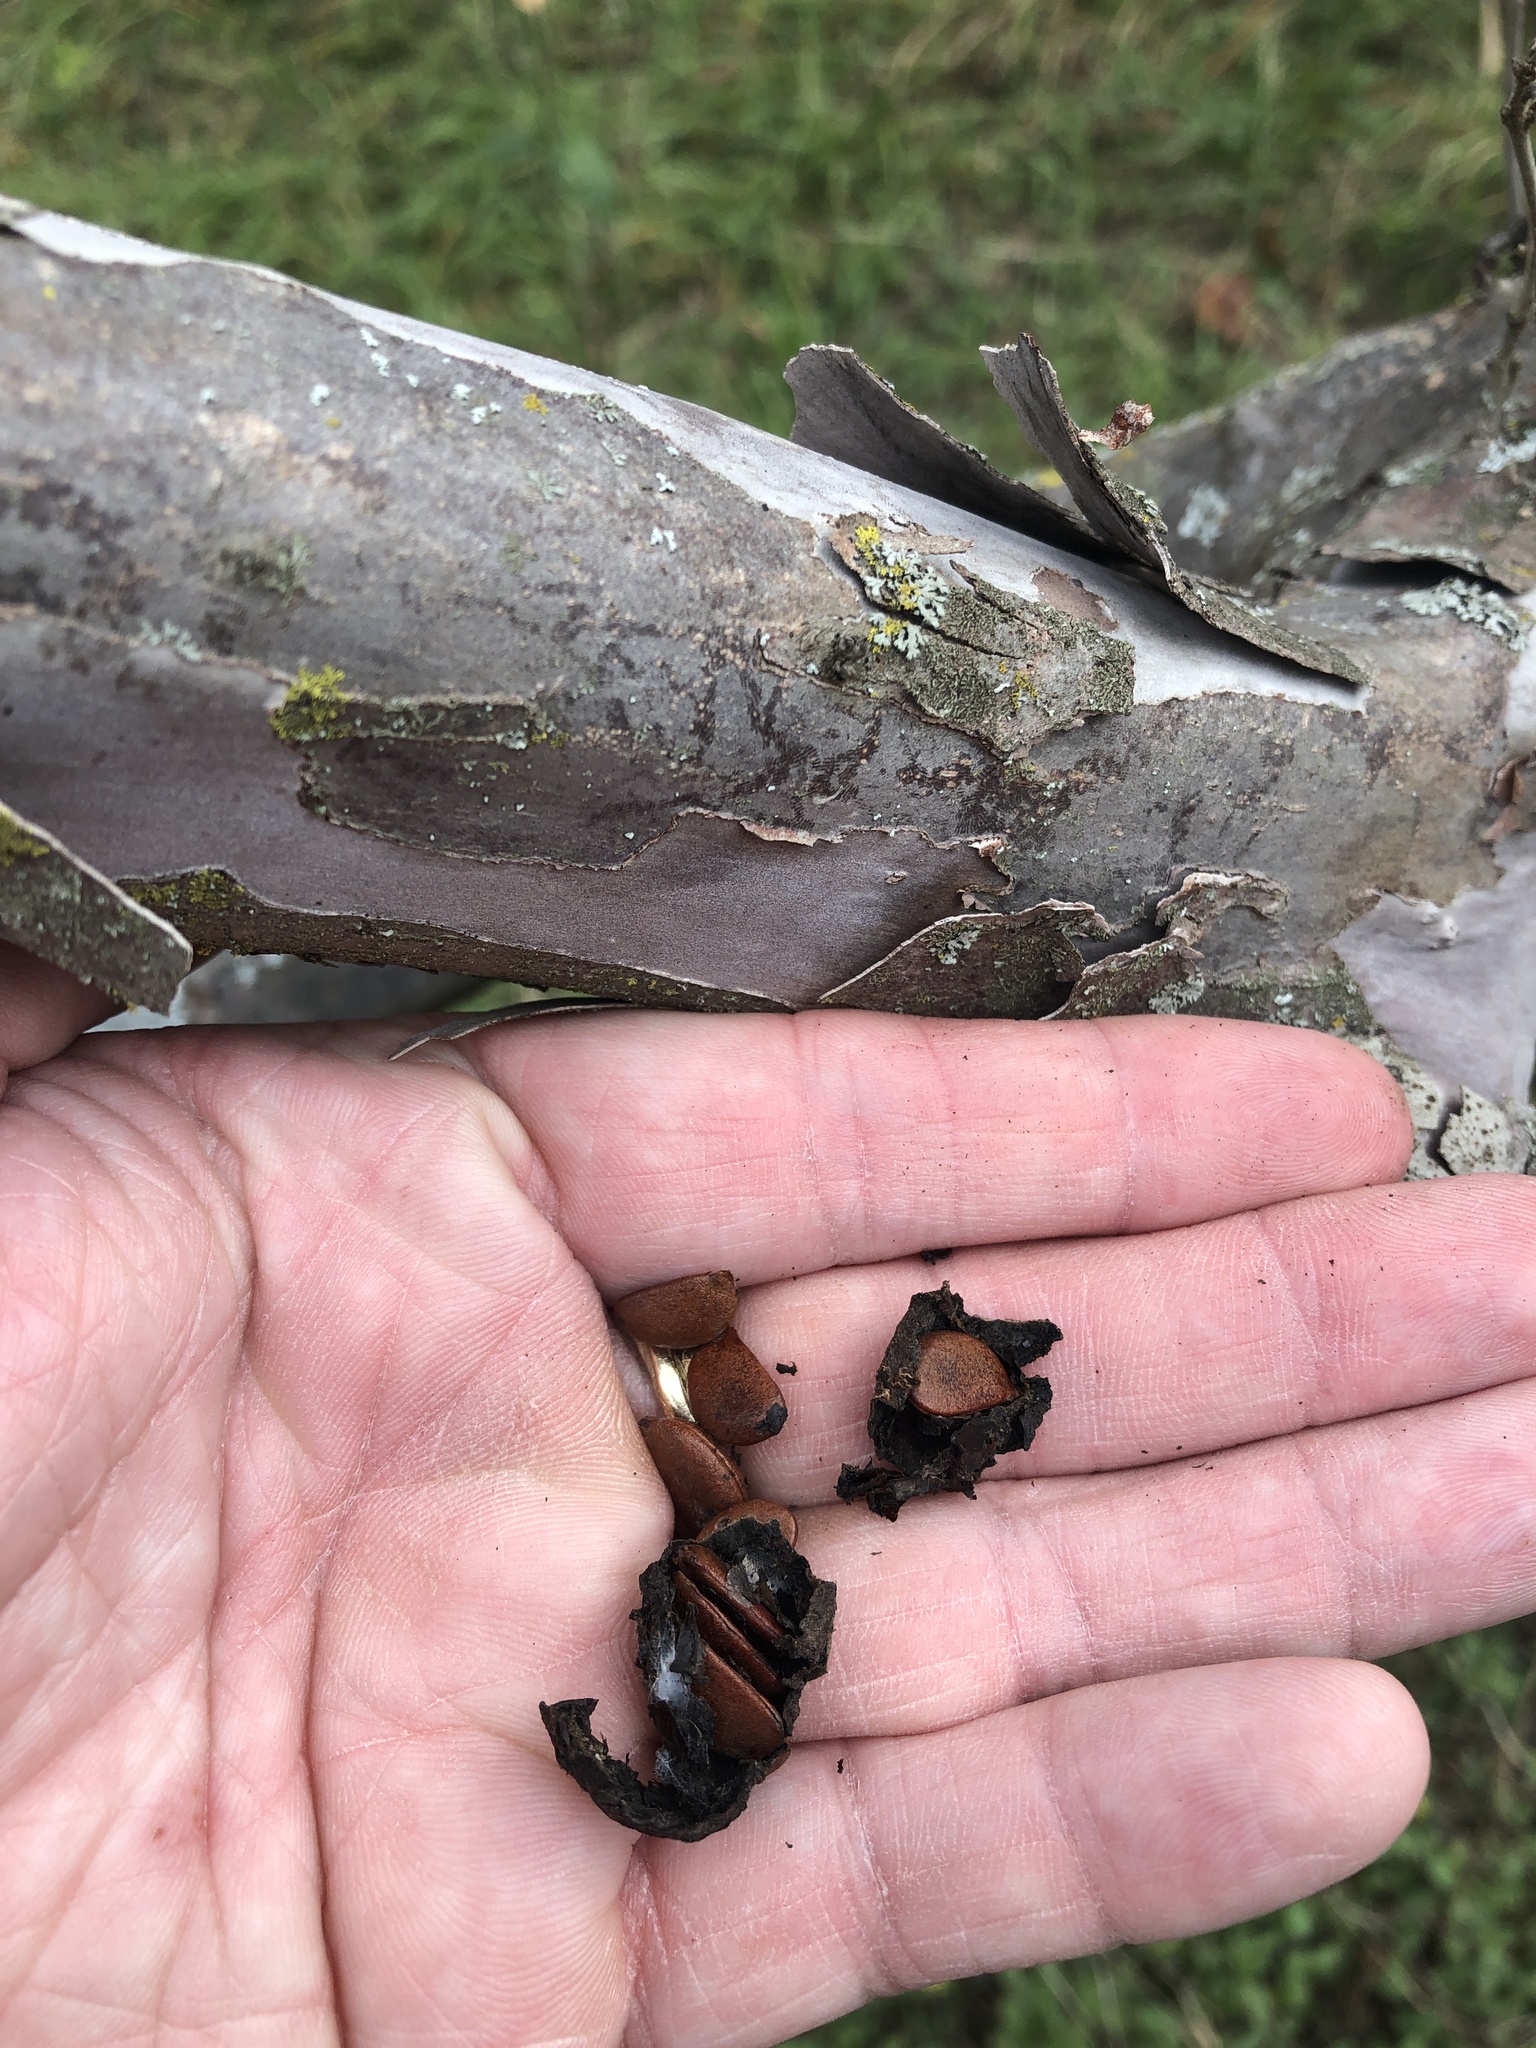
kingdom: Plantae
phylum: Tracheophyta
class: Magnoliopsida
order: Ericales
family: Ebenaceae
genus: Diospyros
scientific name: Diospyros texana
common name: Texas persimmon
